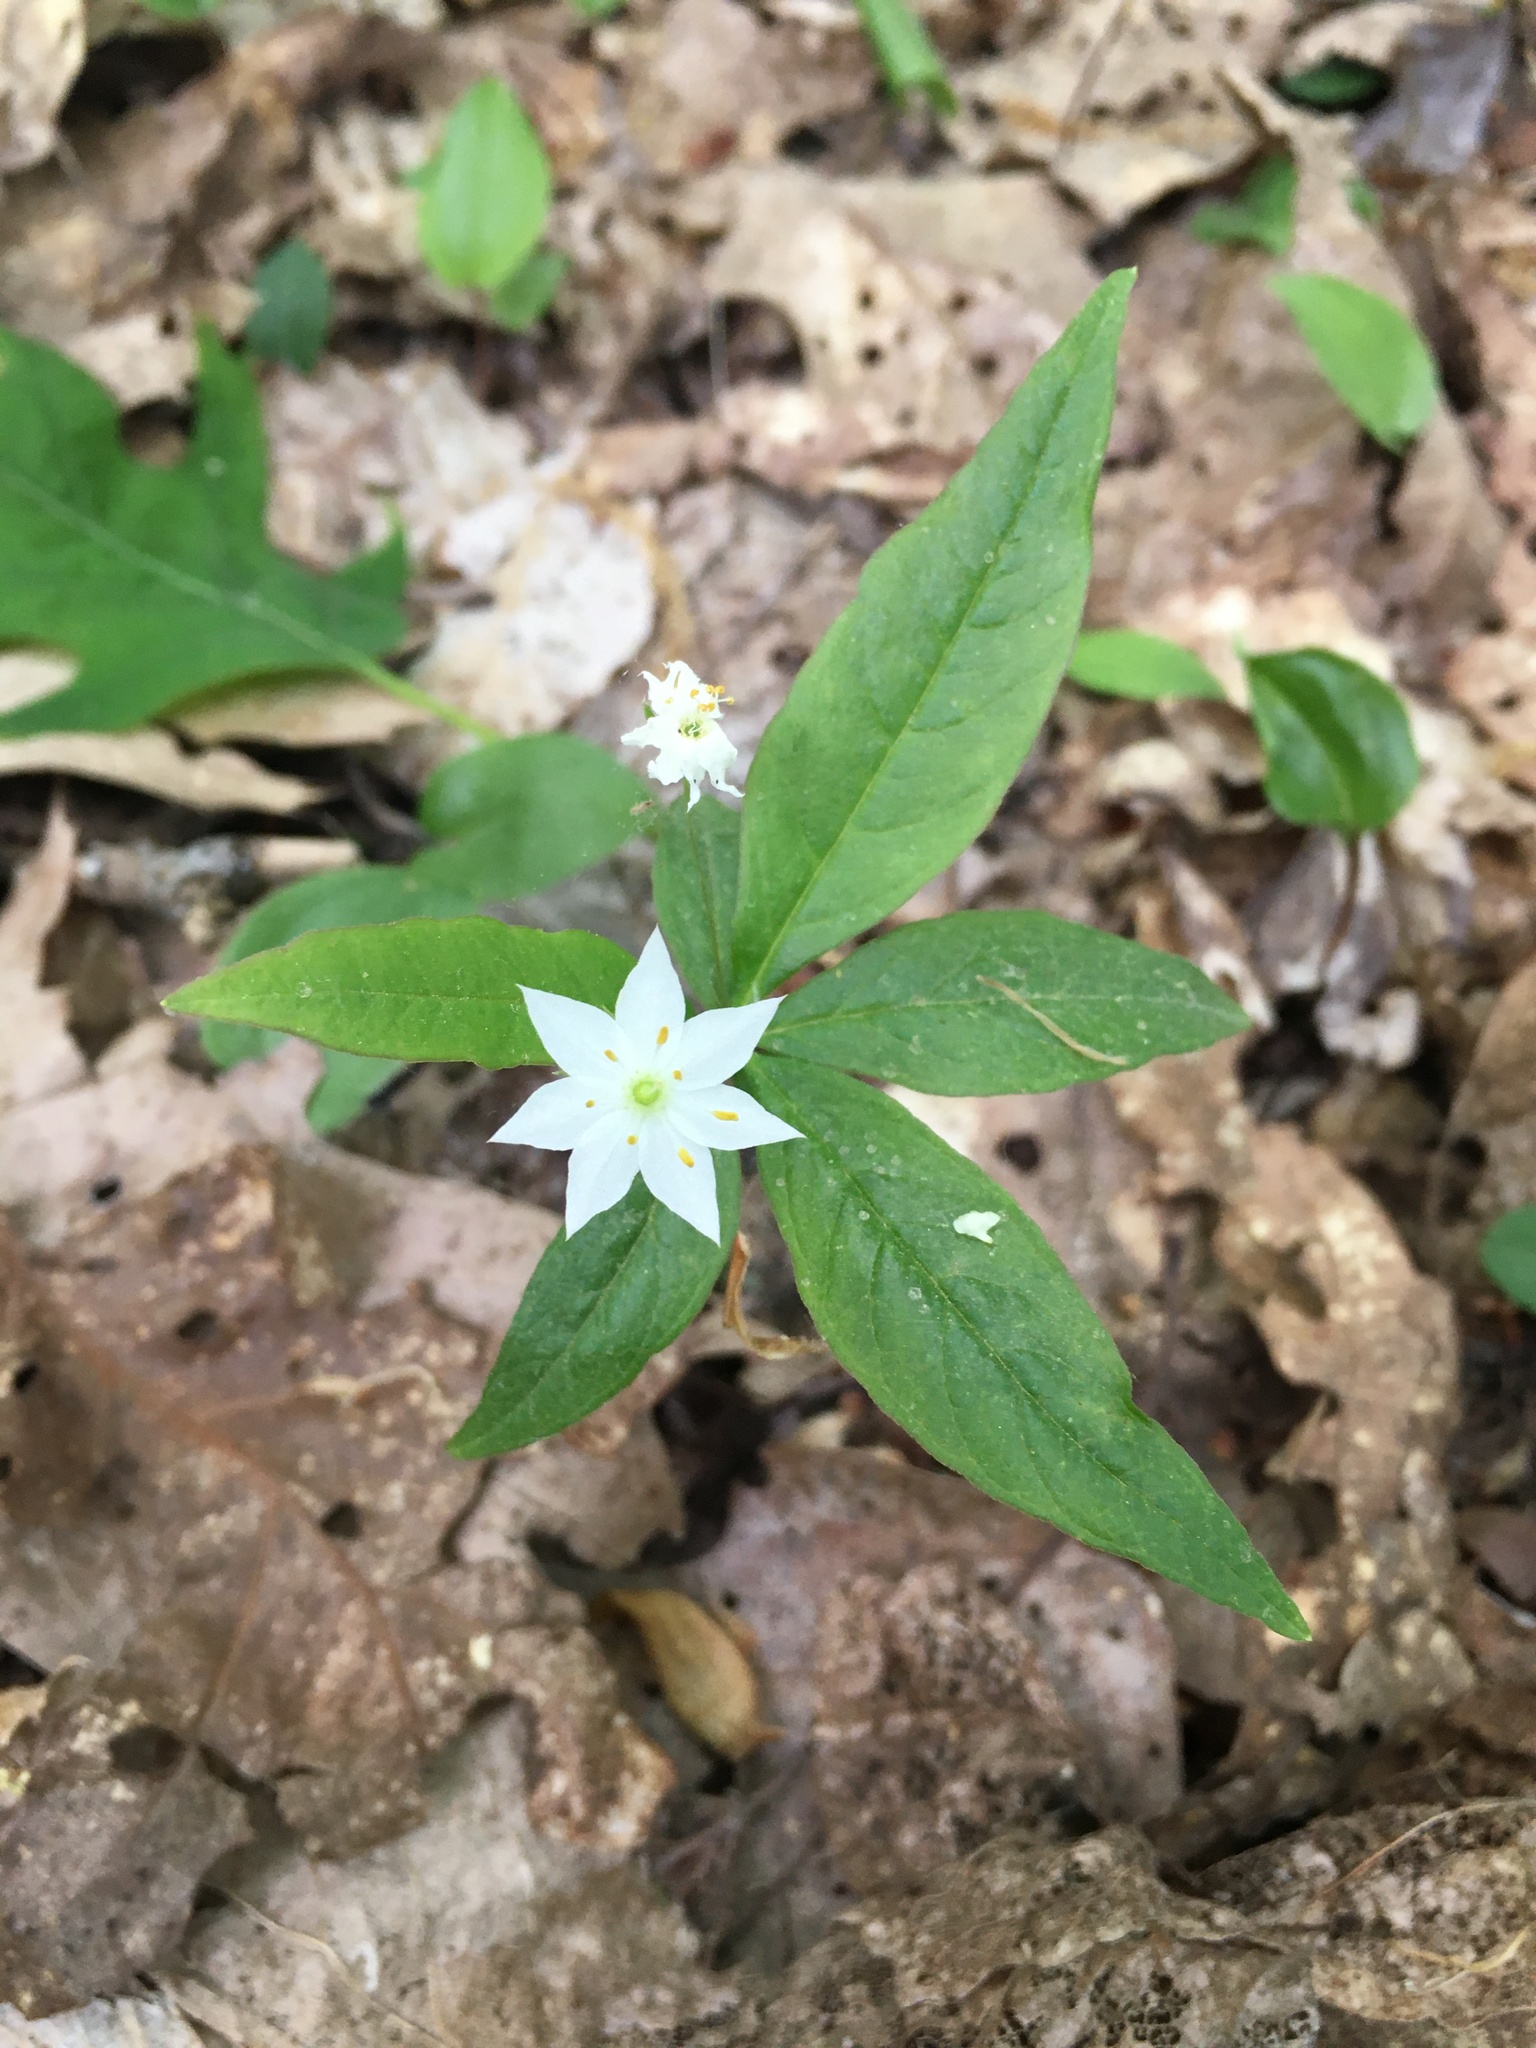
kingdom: Plantae
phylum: Tracheophyta
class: Magnoliopsida
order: Ericales
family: Primulaceae
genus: Lysimachia
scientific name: Lysimachia borealis
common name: American starflower
